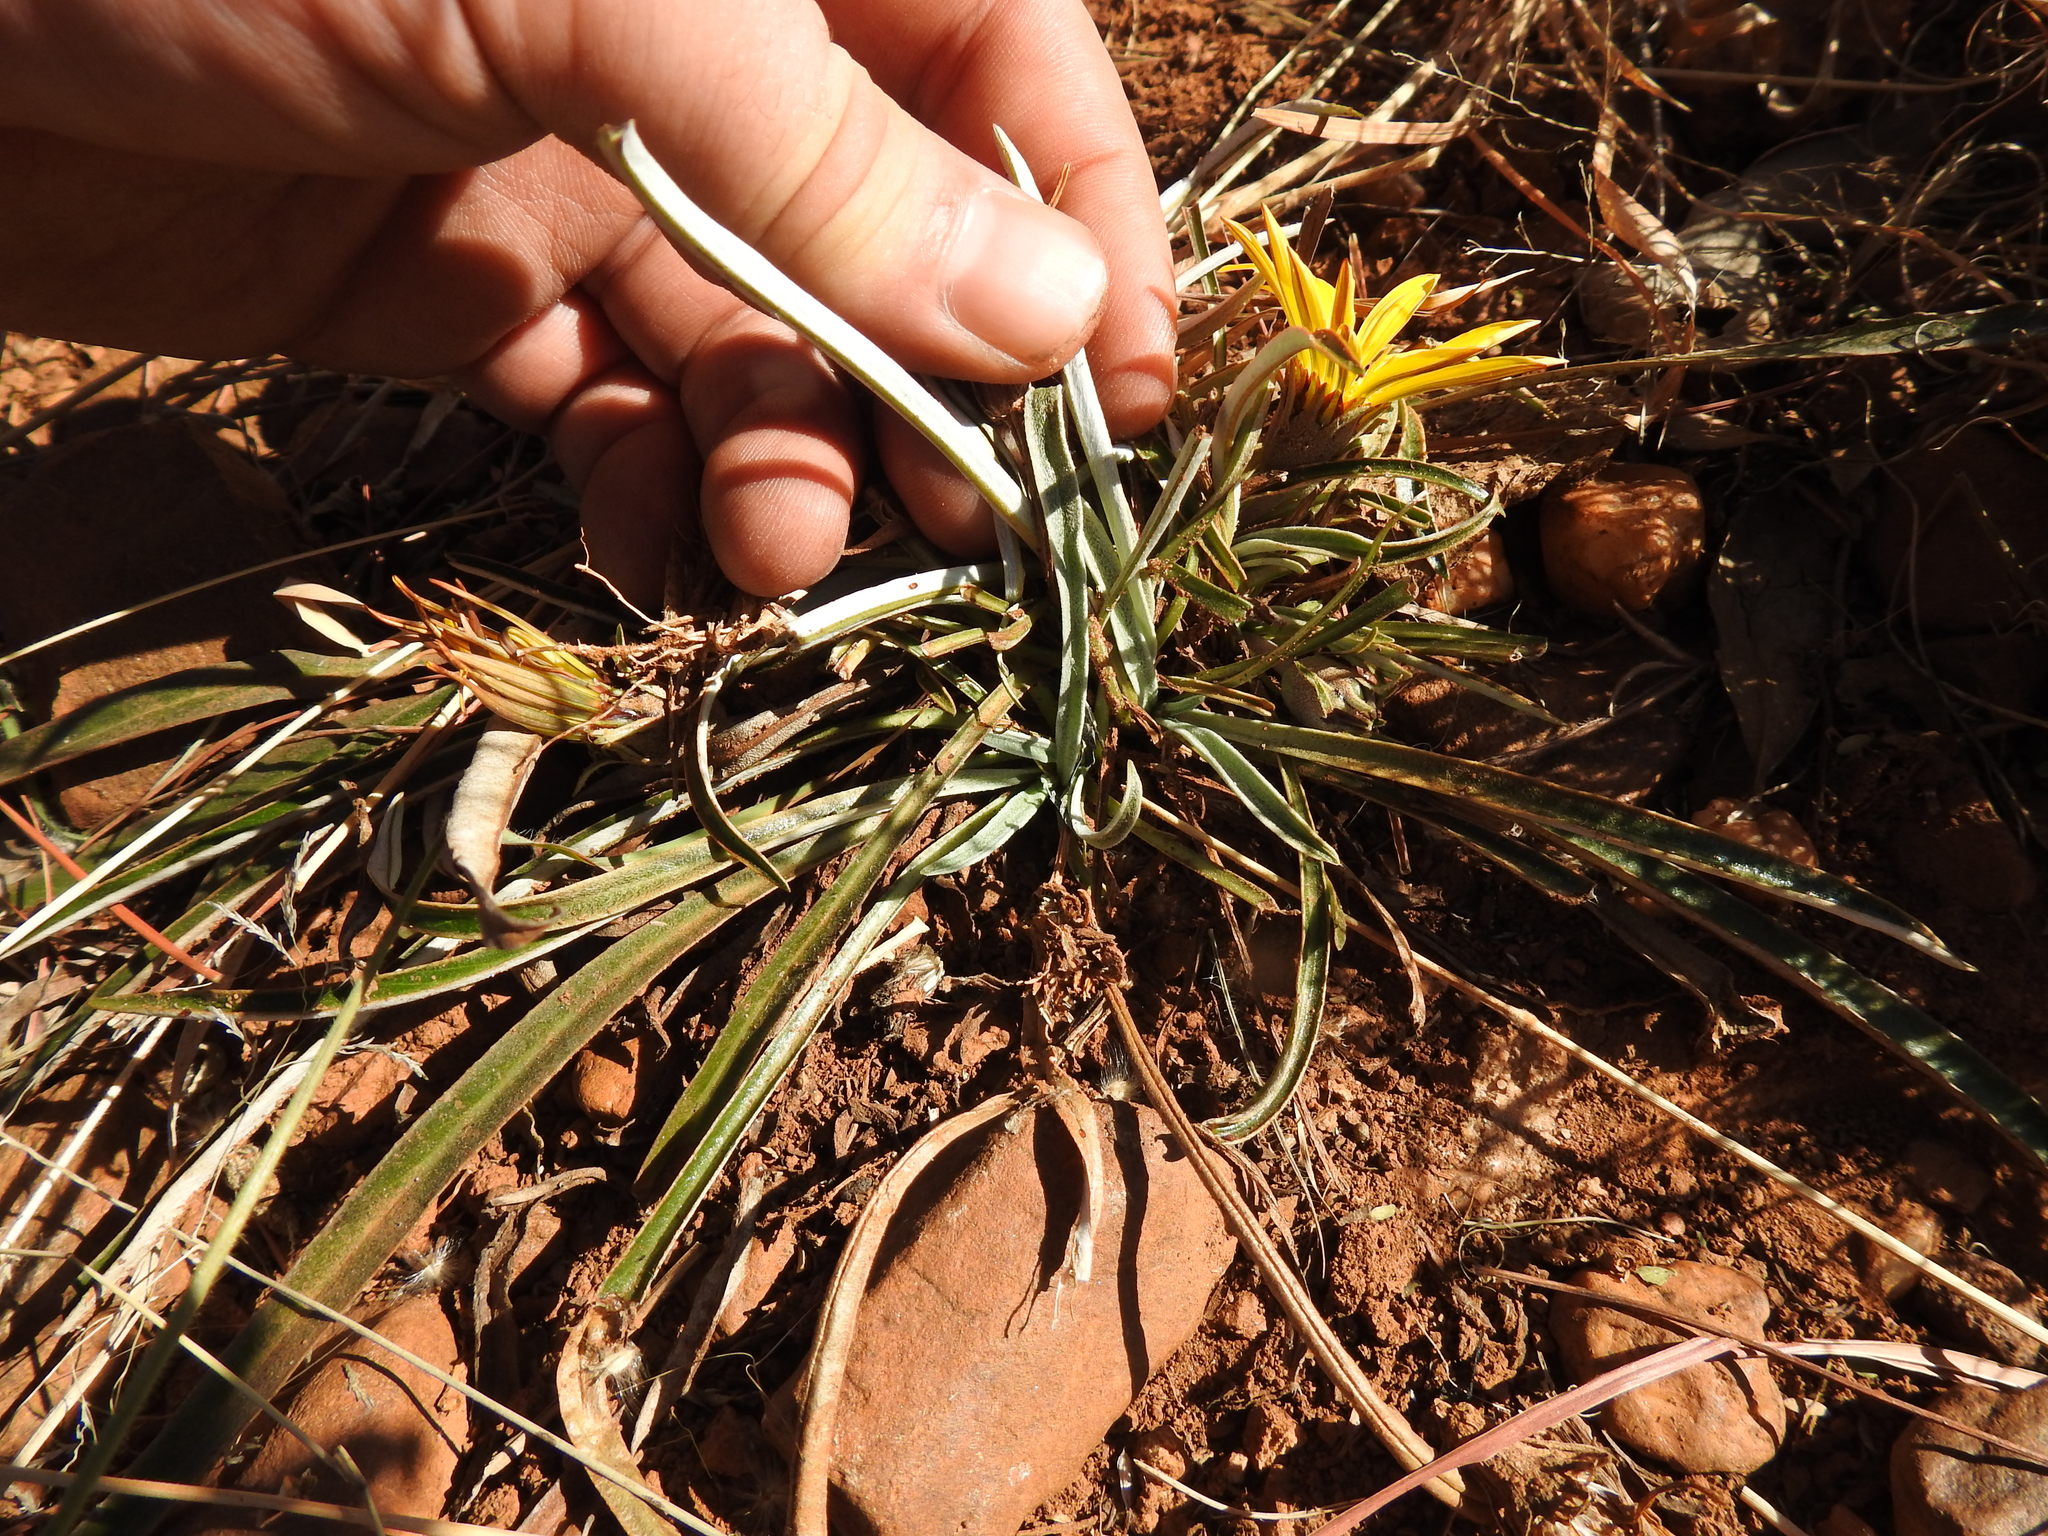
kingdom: Plantae
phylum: Tracheophyta
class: Magnoliopsida
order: Asterales
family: Asteraceae
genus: Gazania
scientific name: Gazania krebsiana
